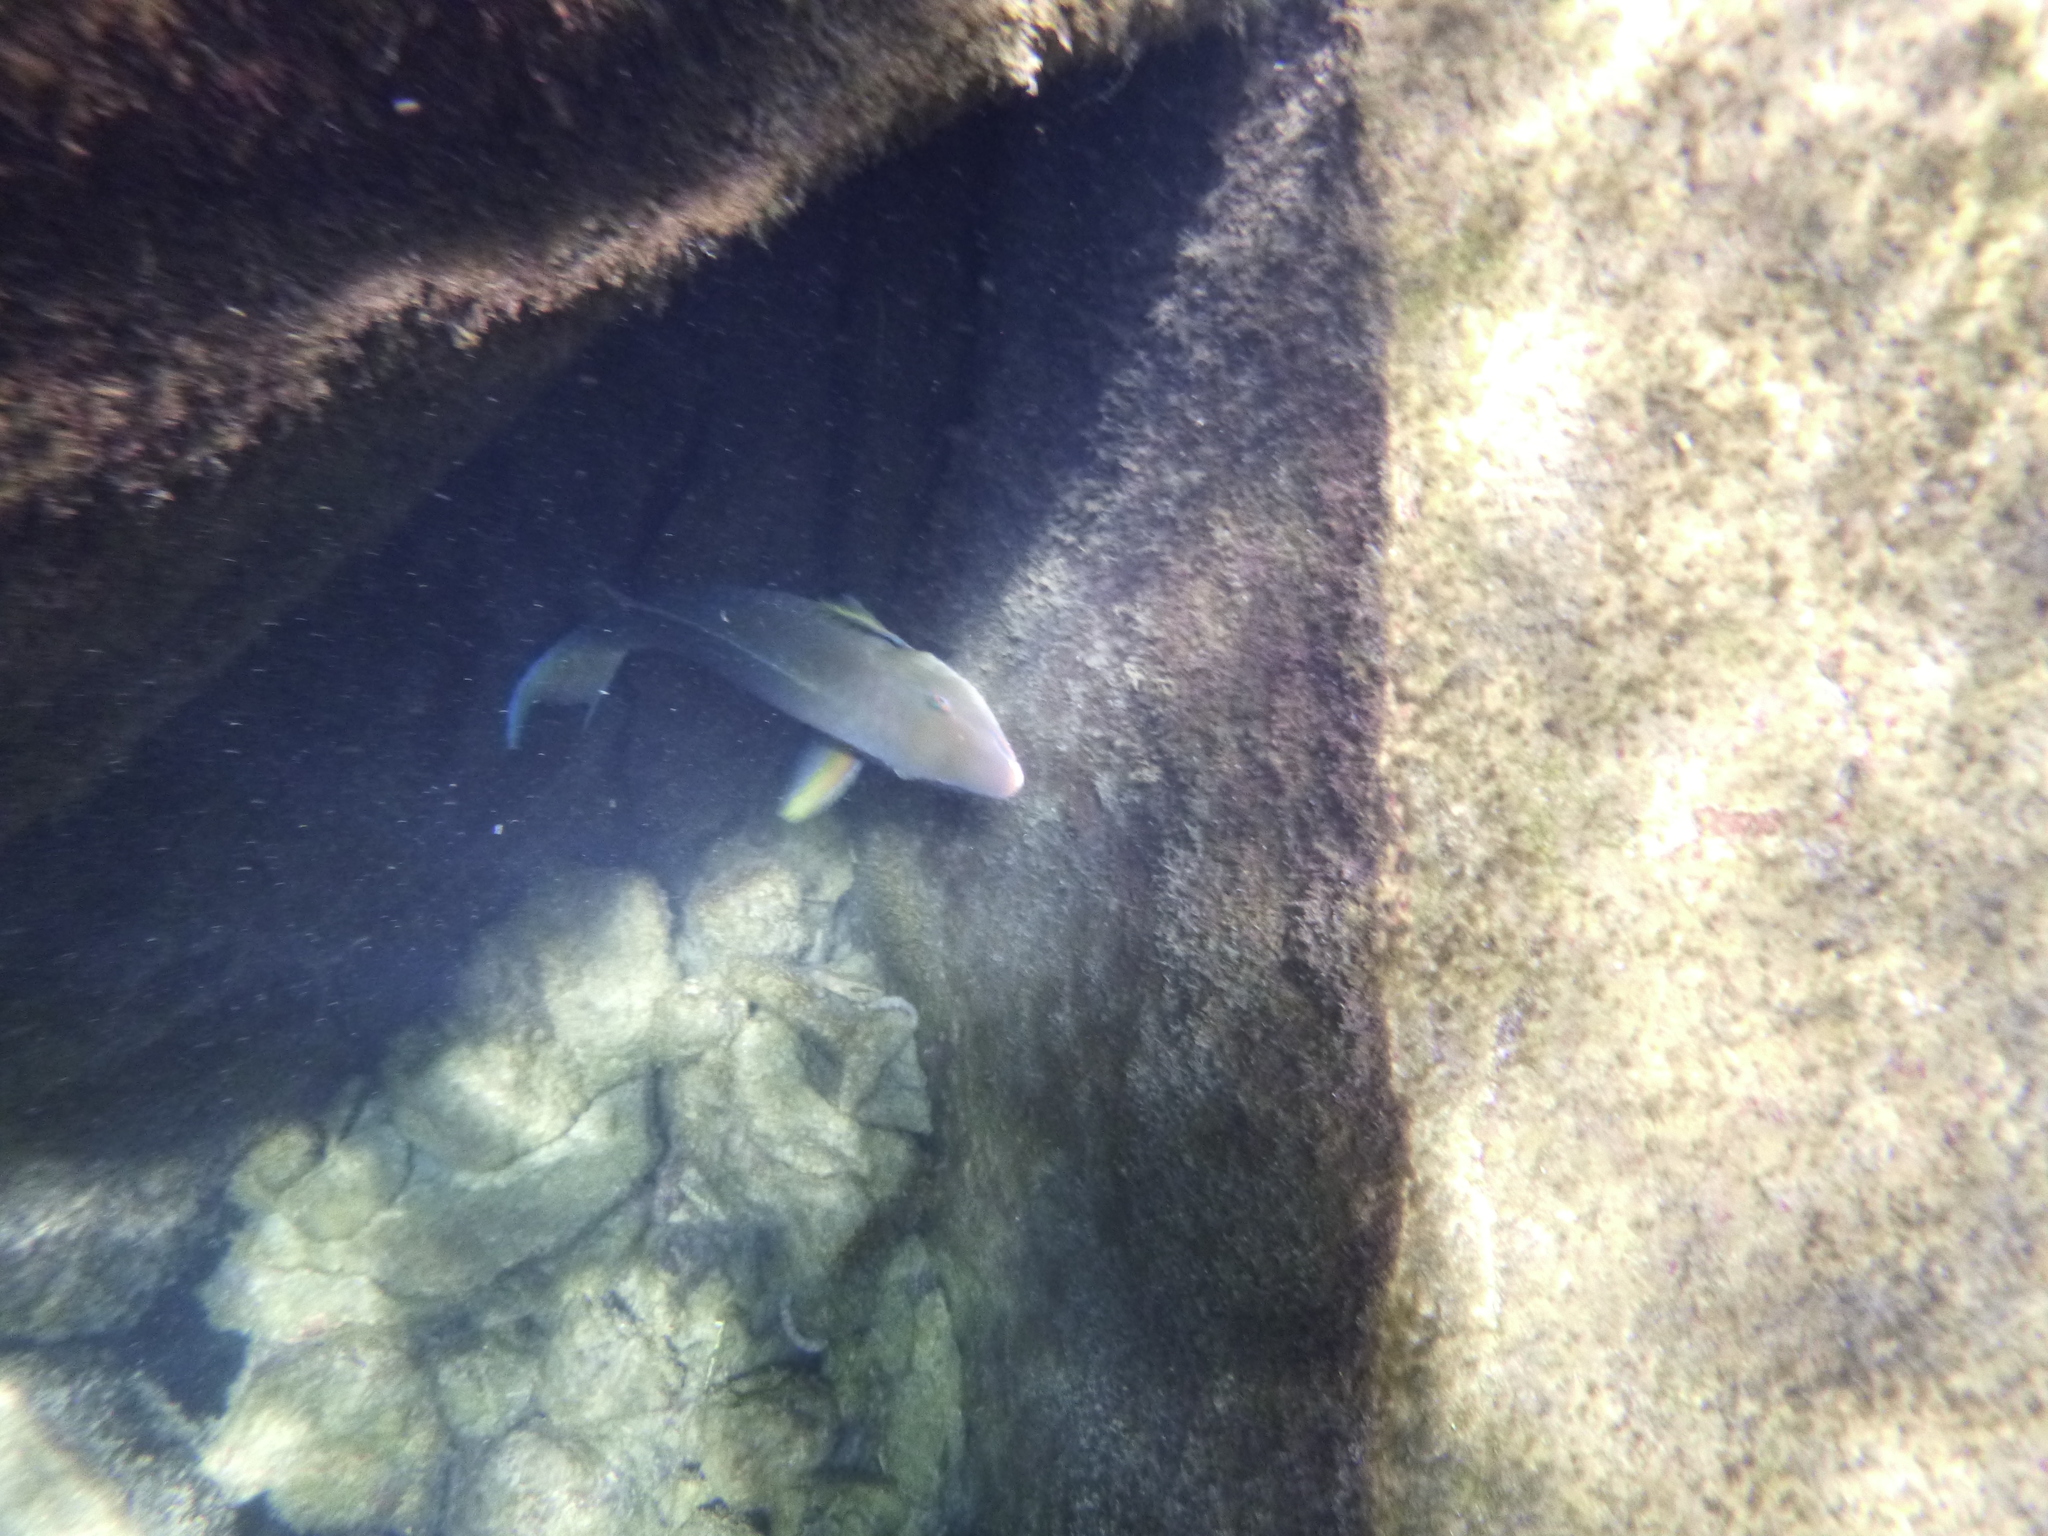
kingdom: Animalia
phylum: Chordata
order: Perciformes
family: Scaridae
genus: Scarus
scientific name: Scarus ghobban
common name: Blue-barred parrotfish
